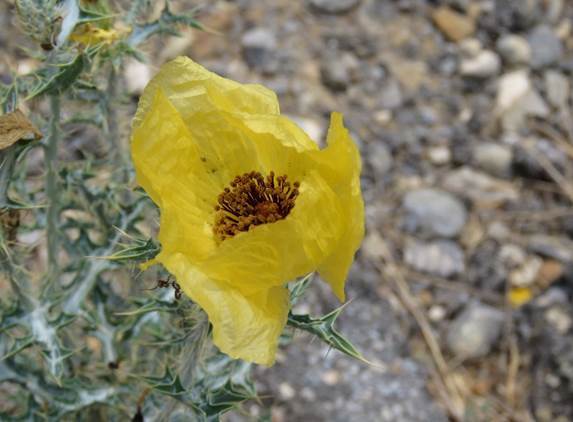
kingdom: Plantae
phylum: Tracheophyta
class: Magnoliopsida
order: Ranunculales
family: Papaveraceae
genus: Argemone
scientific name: Argemone aenea
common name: Golden prickly-poppy
